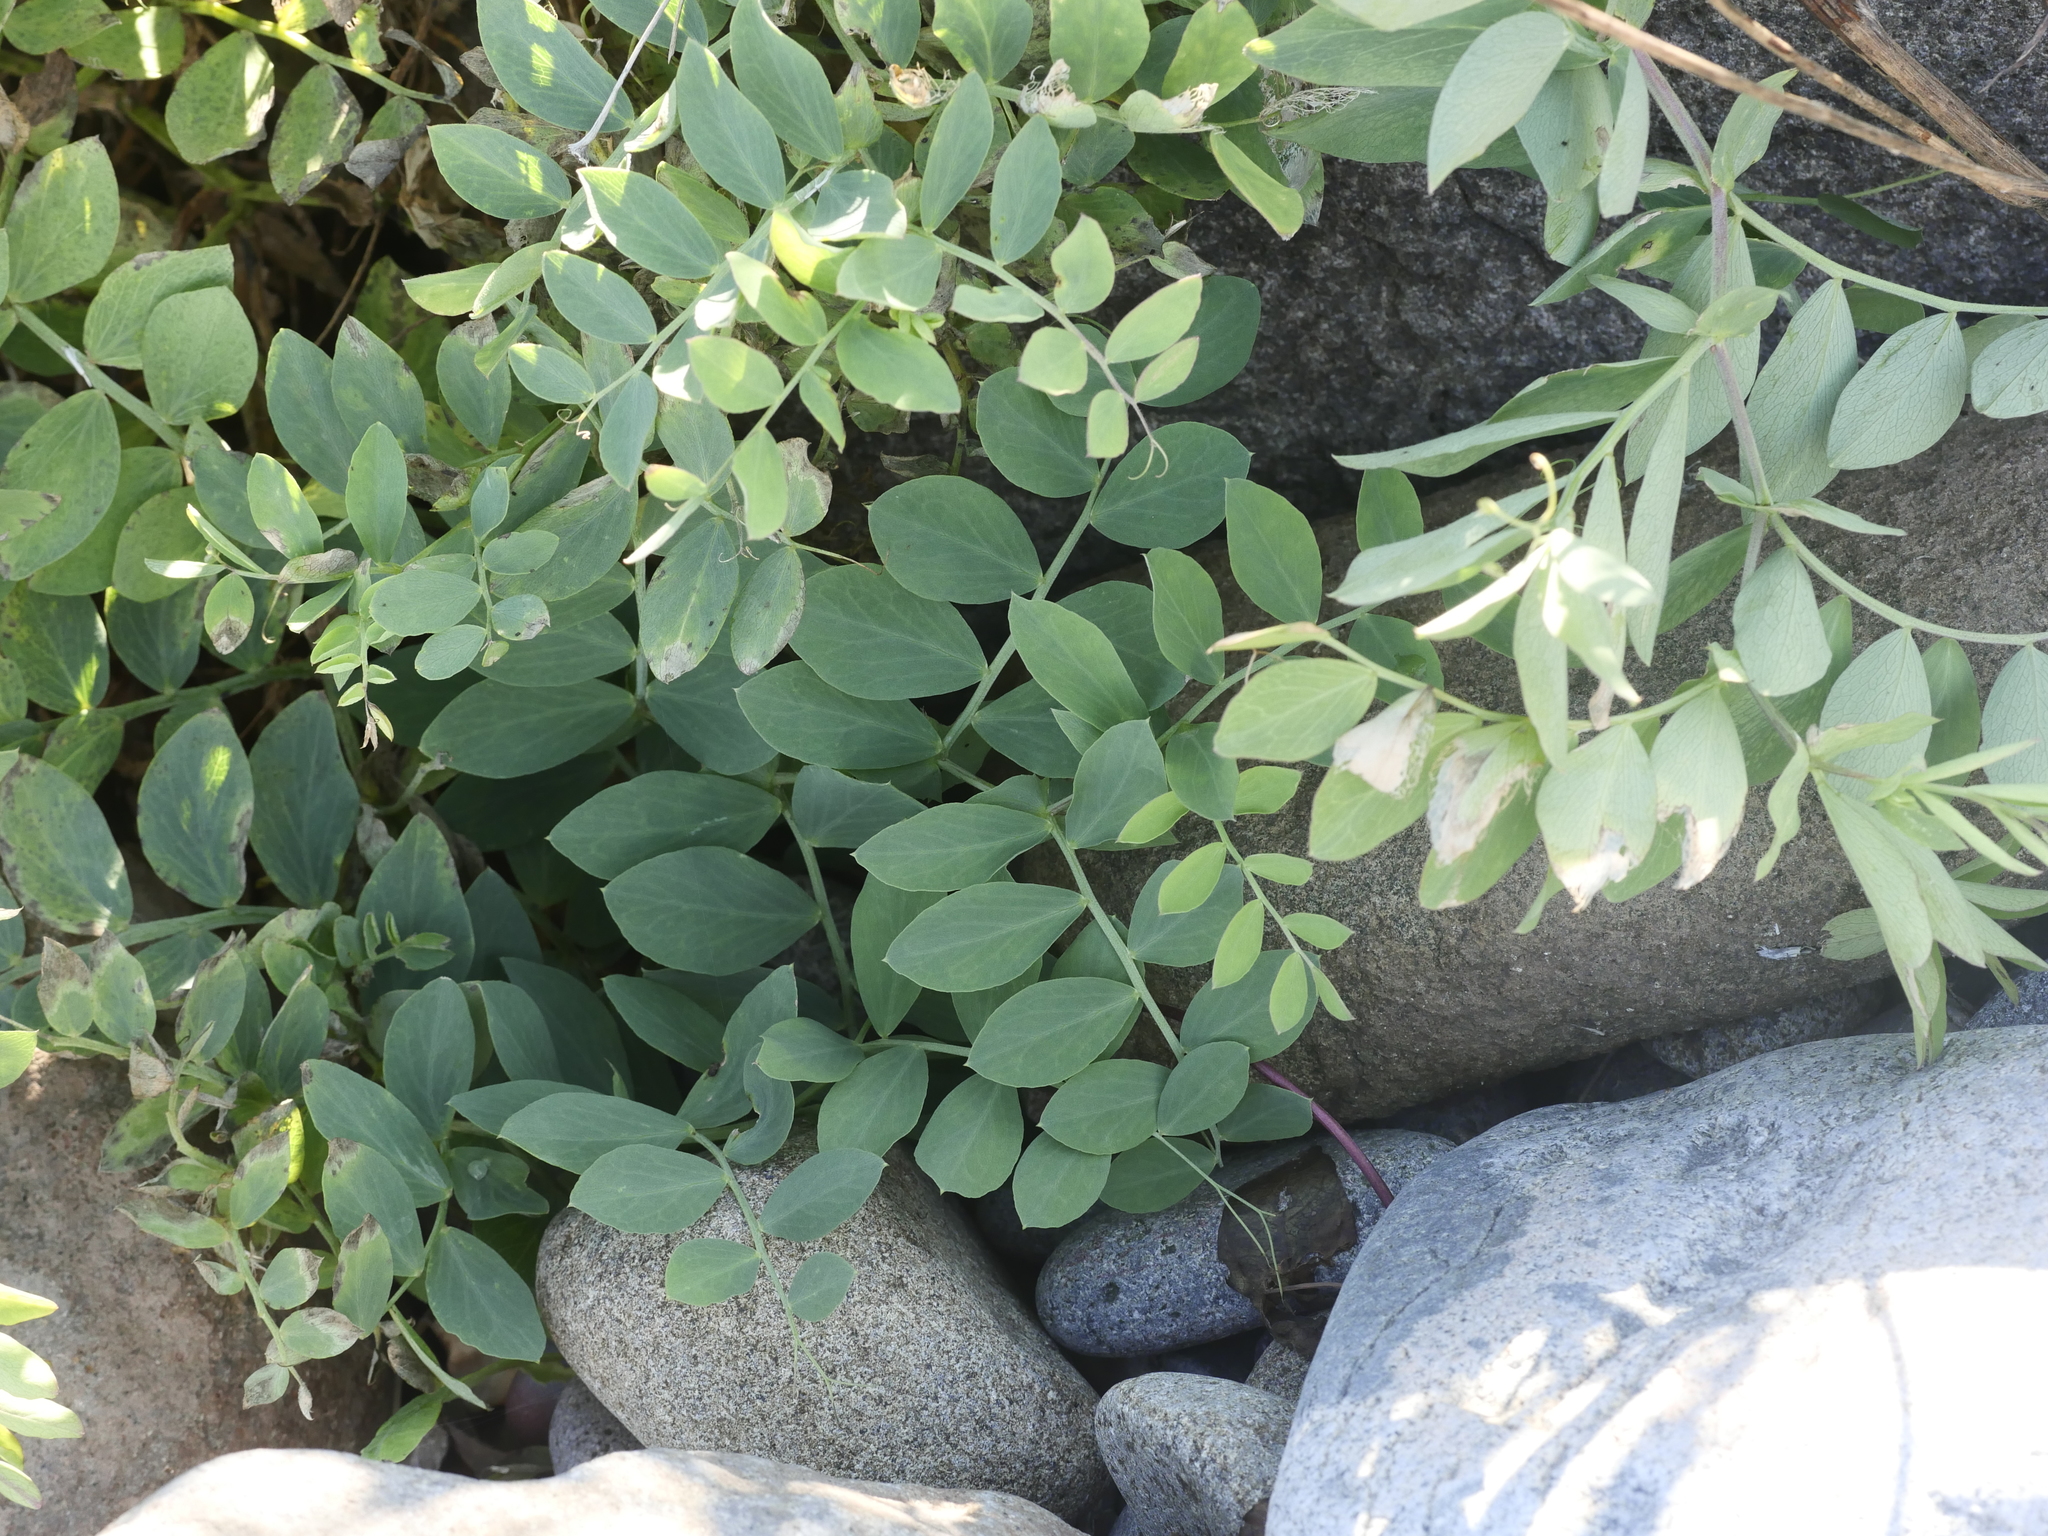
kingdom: Plantae
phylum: Tracheophyta
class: Magnoliopsida
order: Fabales
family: Fabaceae
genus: Lathyrus
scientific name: Lathyrus japonicus
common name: Sea pea
